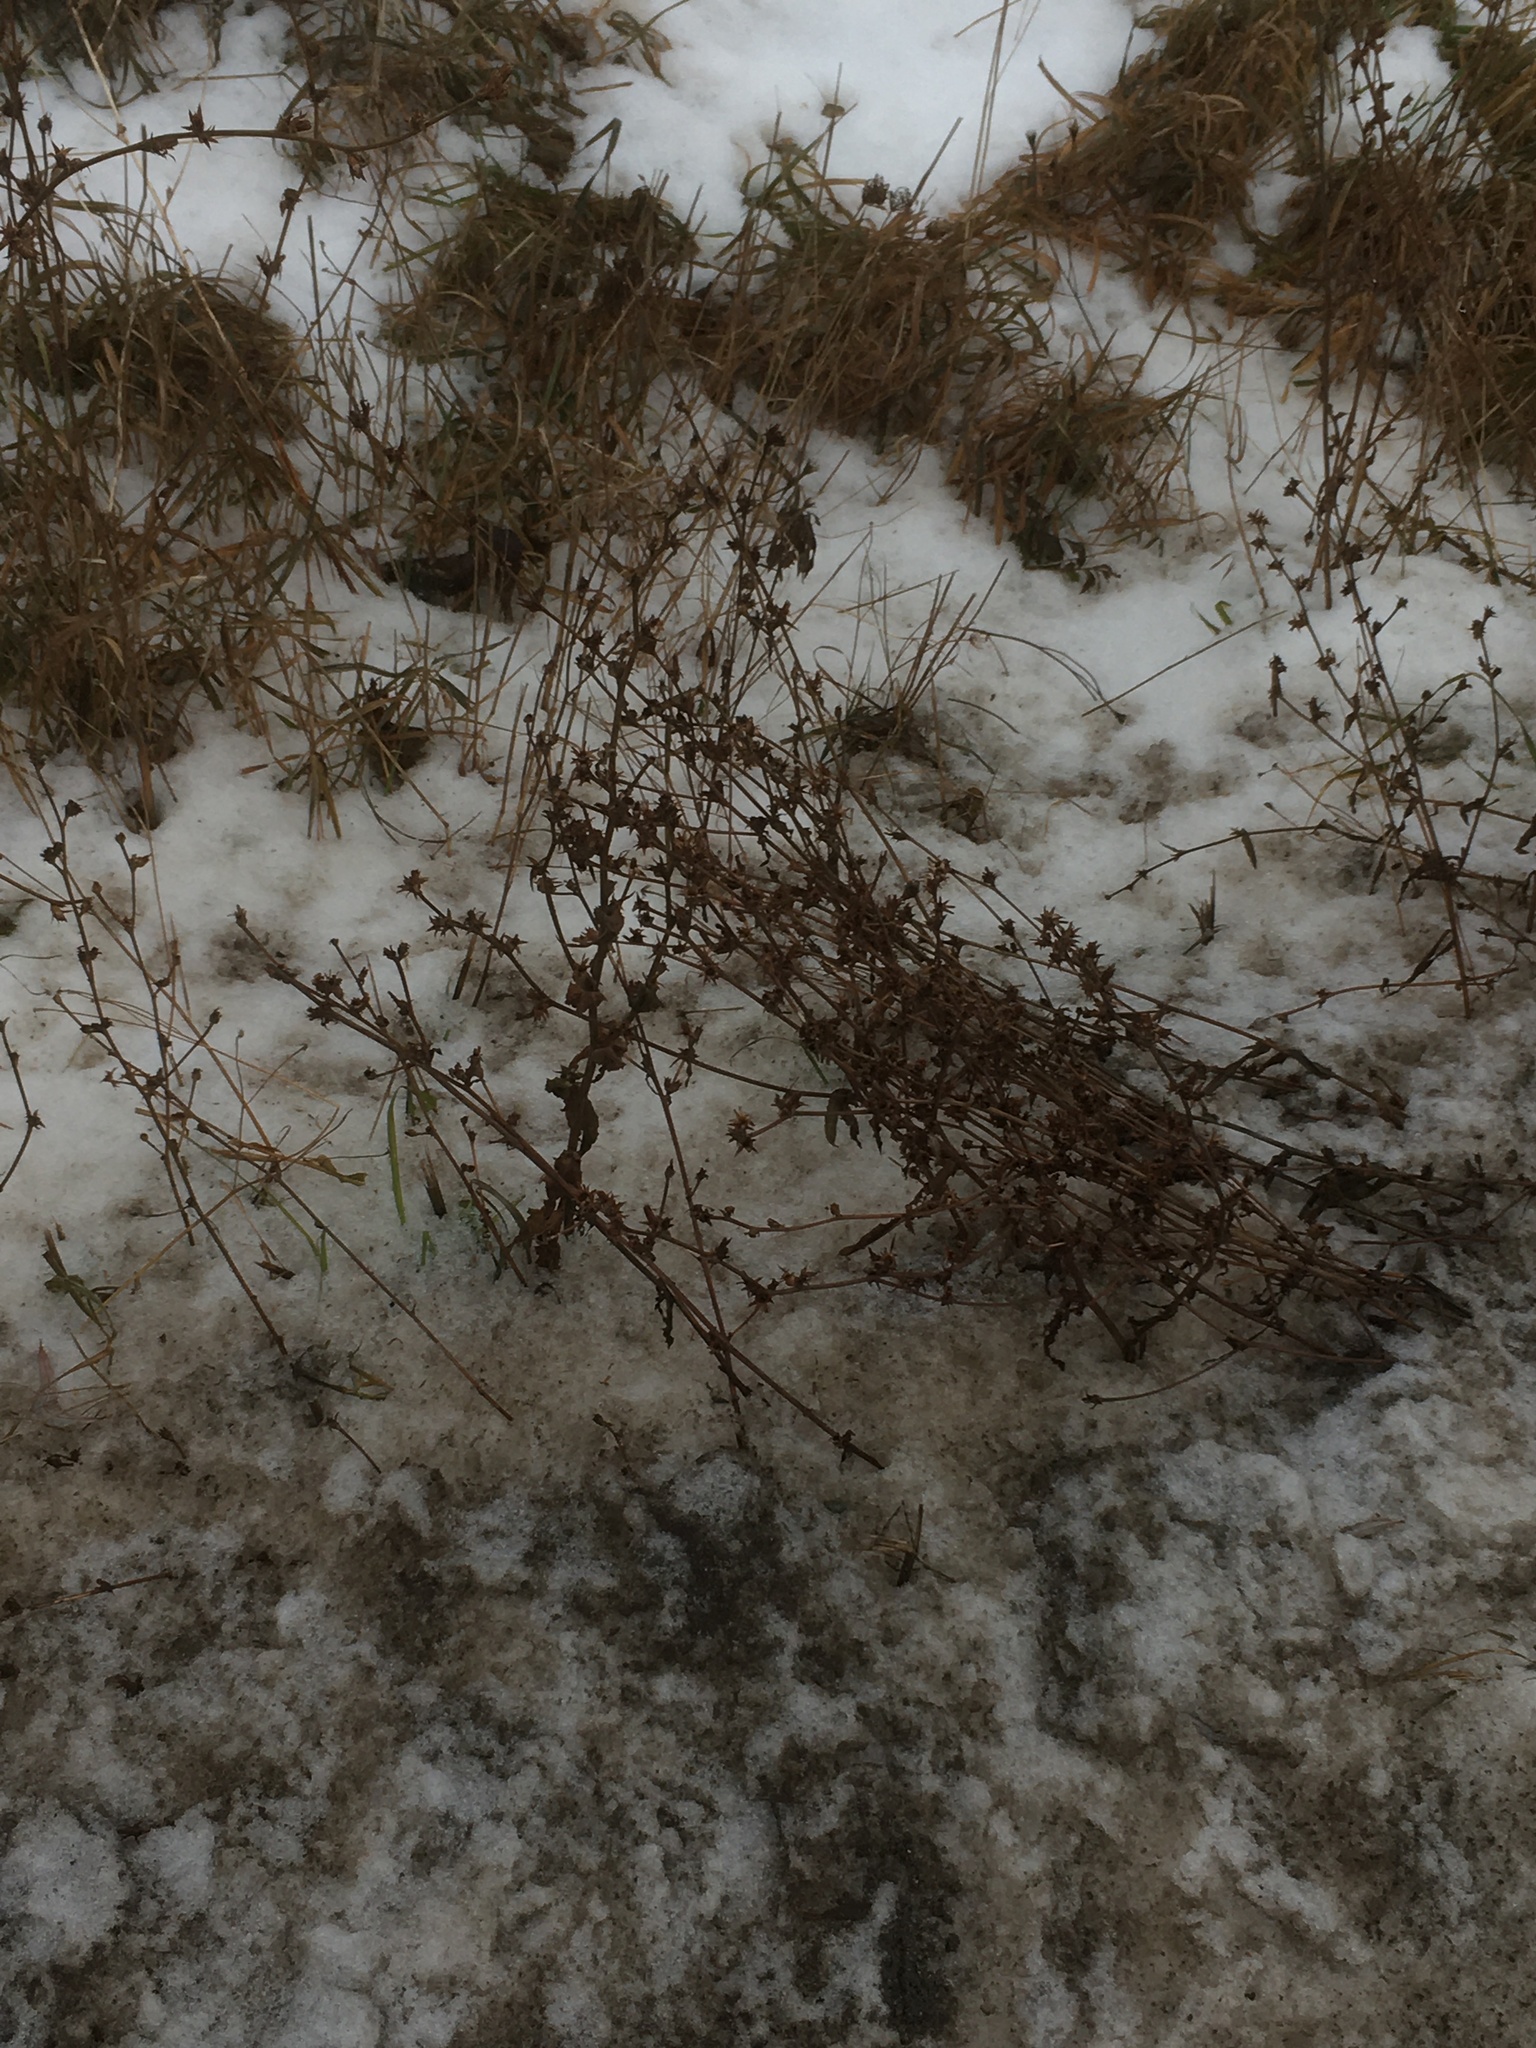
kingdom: Plantae
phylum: Tracheophyta
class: Magnoliopsida
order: Asterales
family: Asteraceae
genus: Cichorium
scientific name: Cichorium intybus
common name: Chicory
